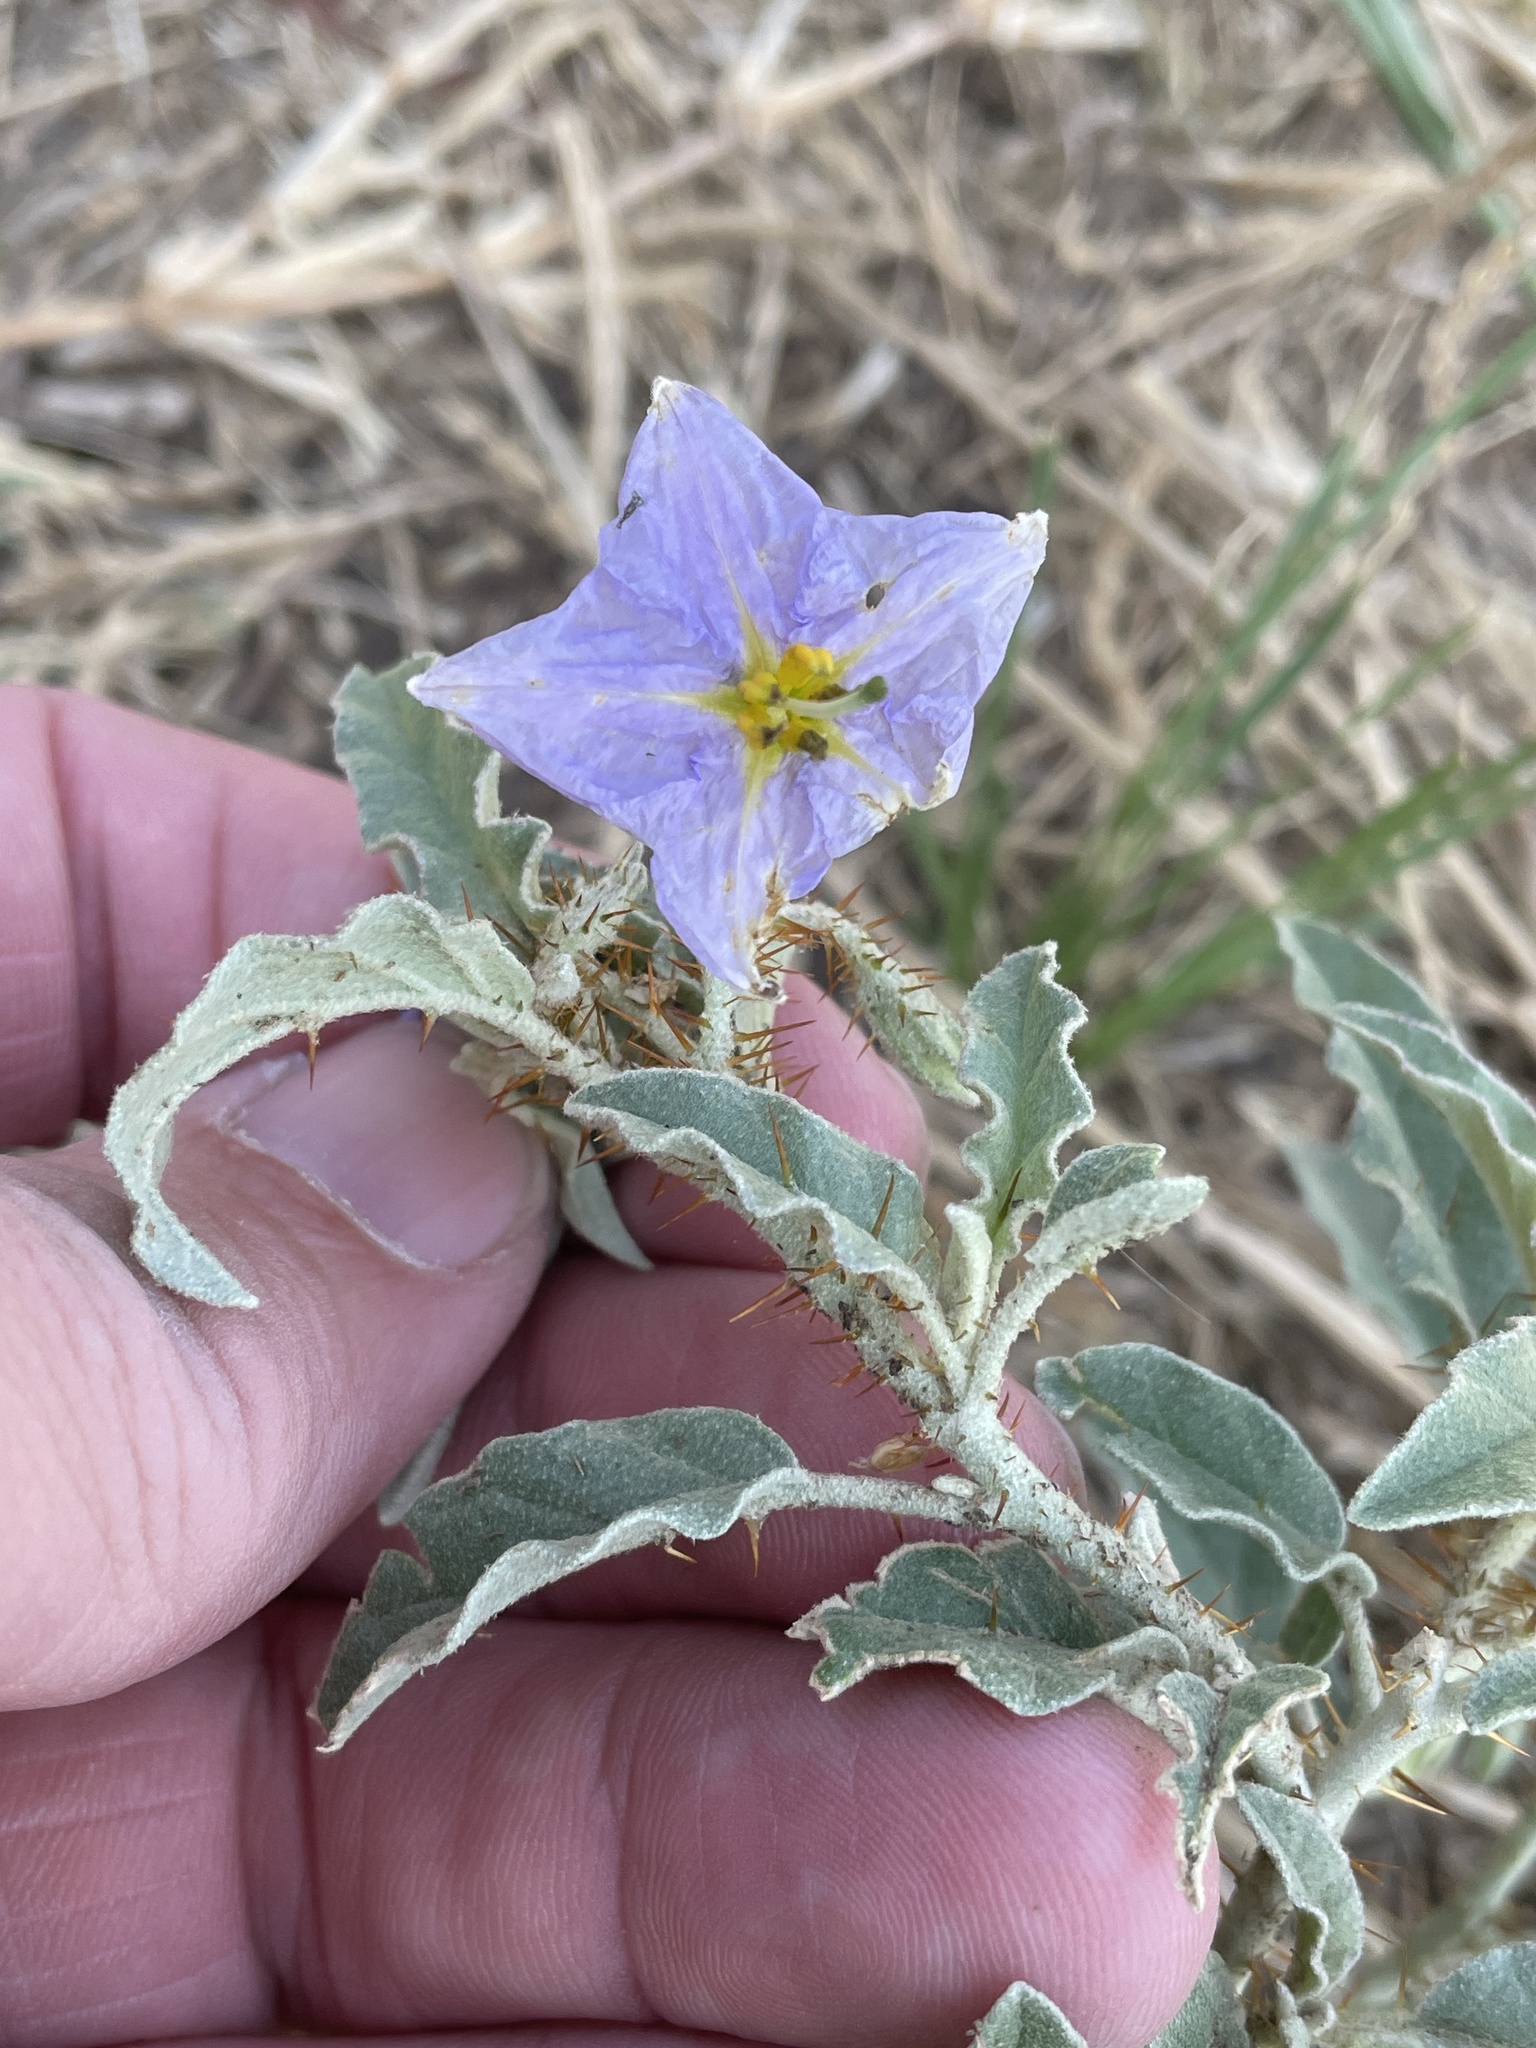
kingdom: Plantae
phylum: Tracheophyta
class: Magnoliopsida
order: Solanales
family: Solanaceae
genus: Solanum
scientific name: Solanum elaeagnifolium
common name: Silverleaf nightshade
